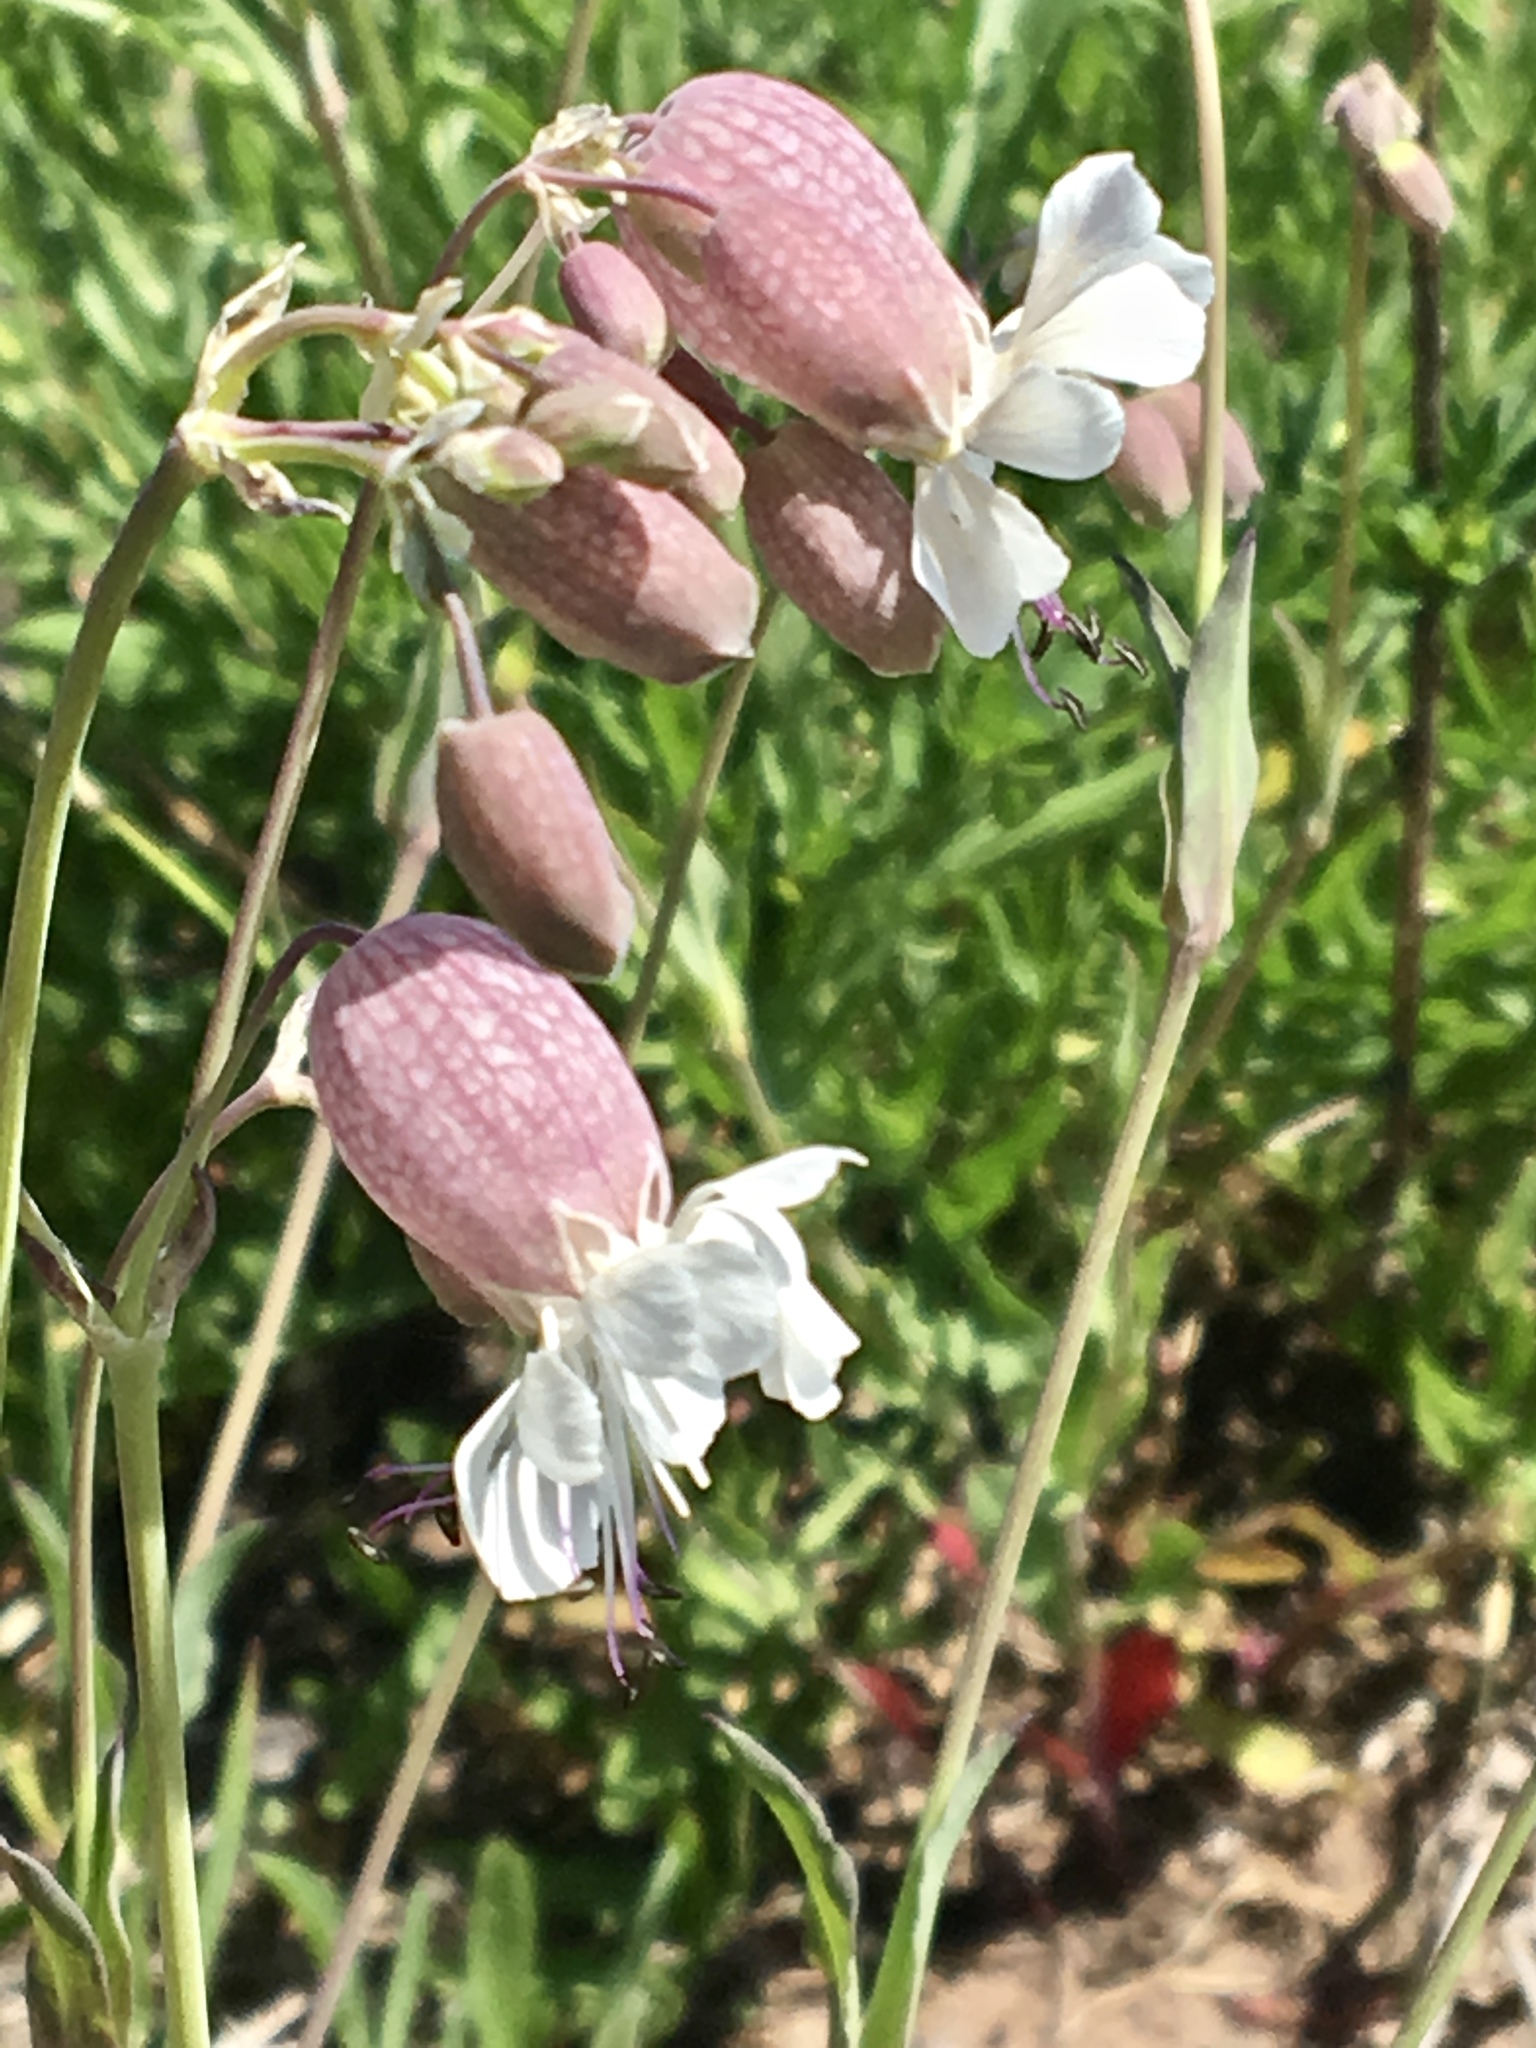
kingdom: Plantae
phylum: Tracheophyta
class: Magnoliopsida
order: Caryophyllales
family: Caryophyllaceae
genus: Silene
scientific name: Silene latifolia
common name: White campion
